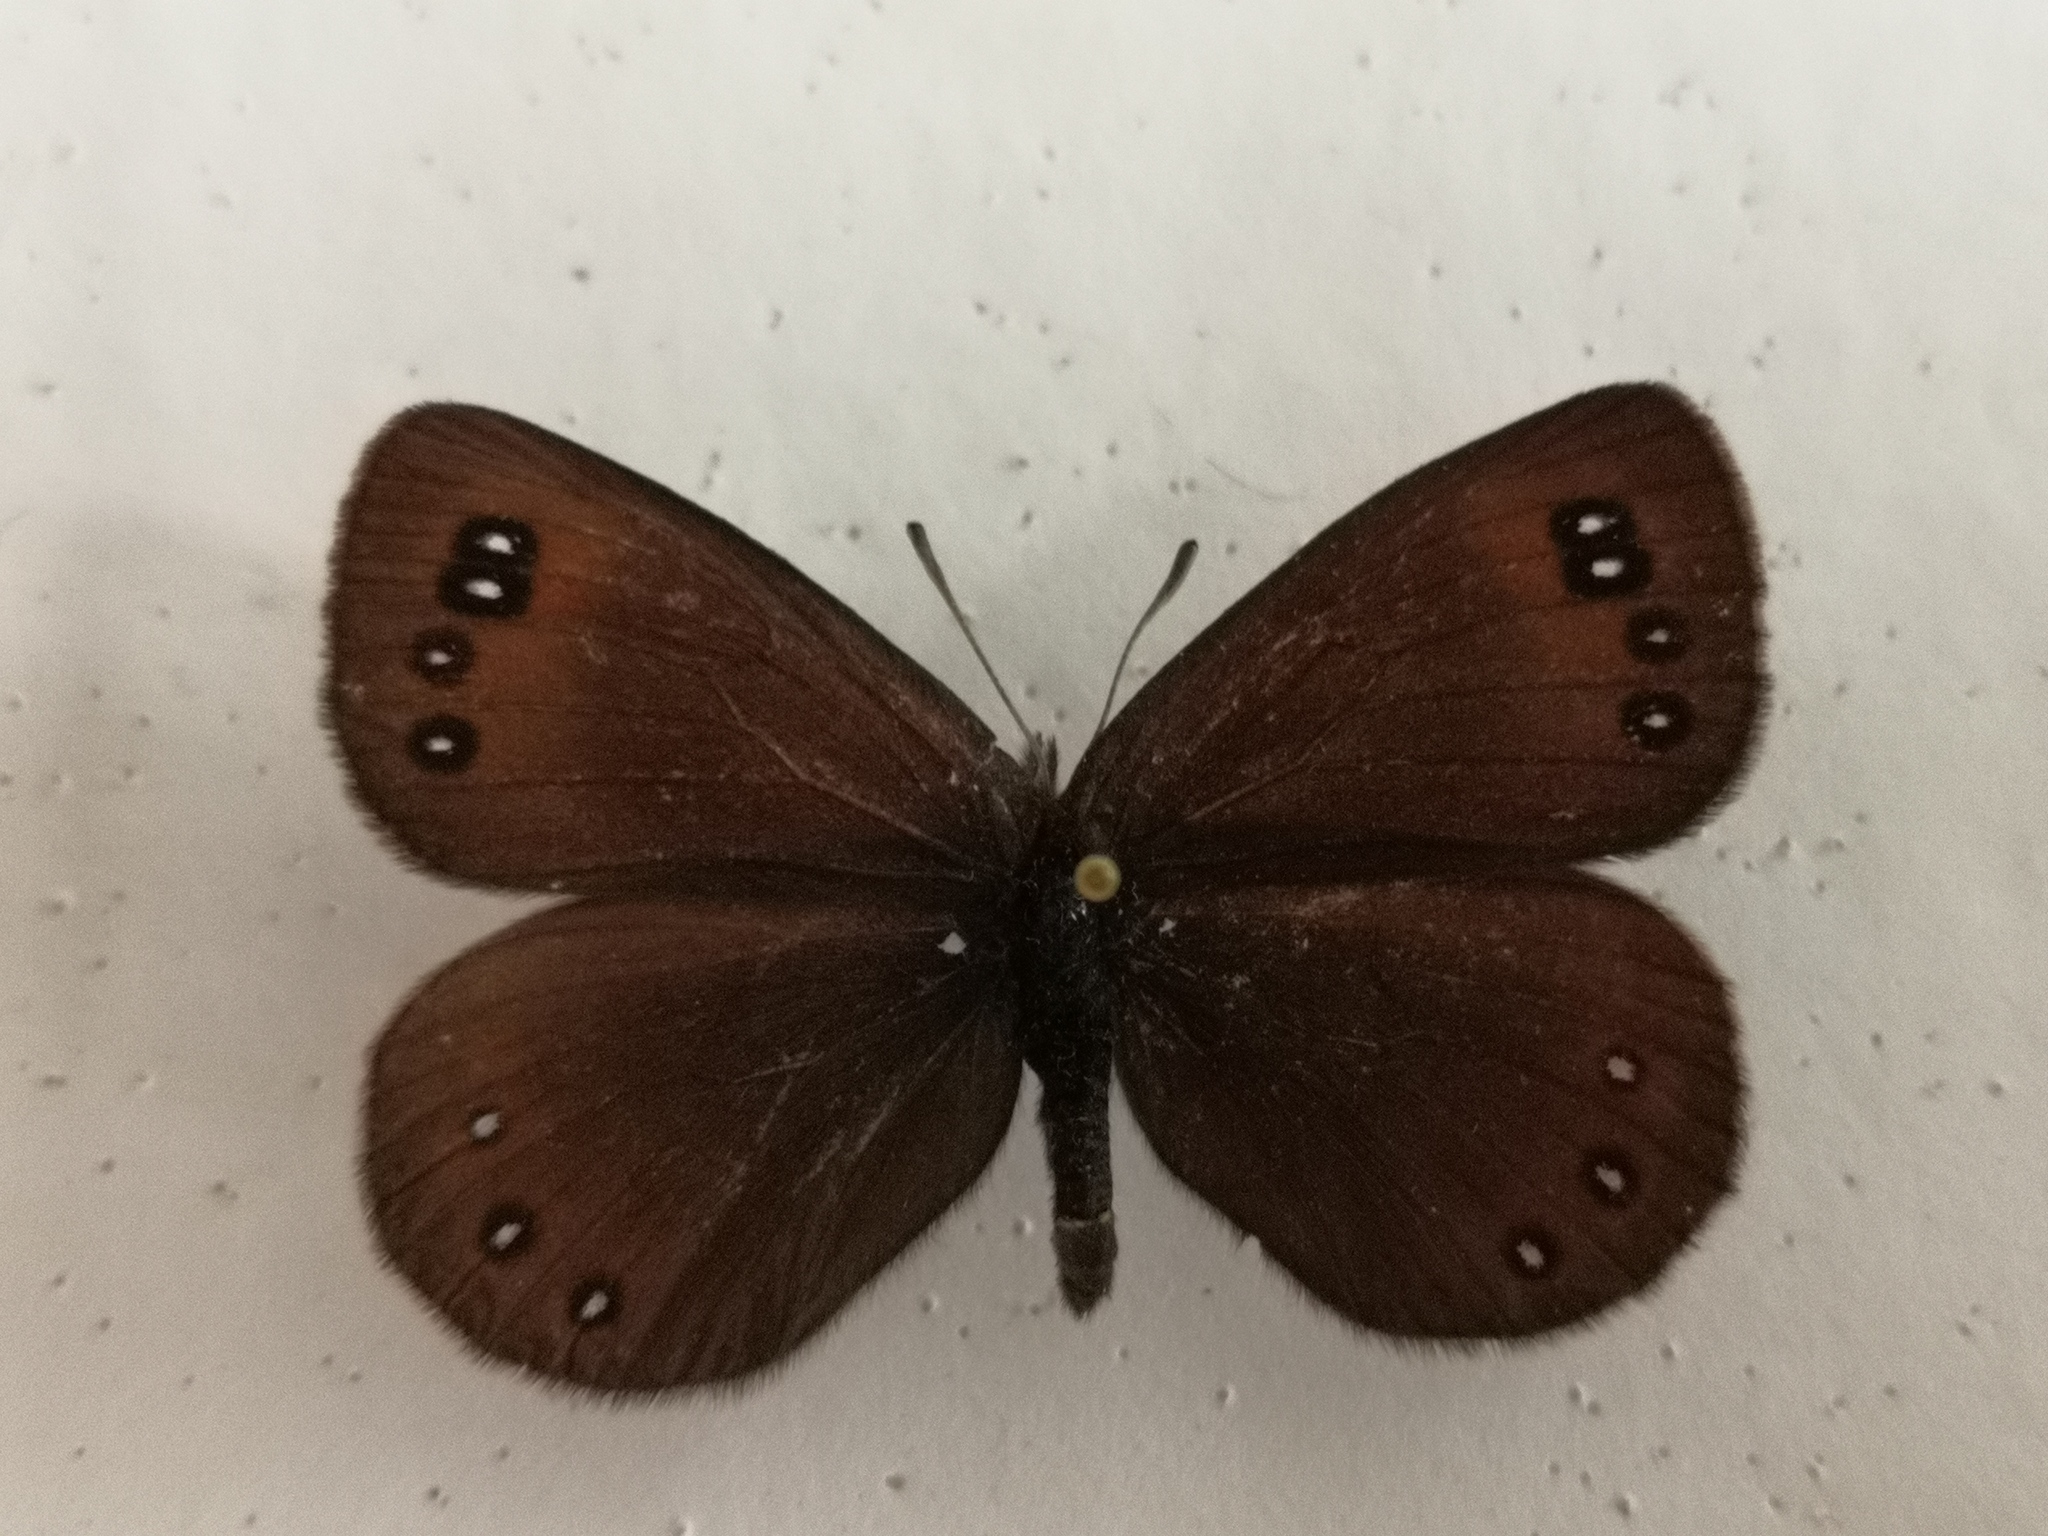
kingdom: Animalia
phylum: Arthropoda
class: Insecta
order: Lepidoptera
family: Nymphalidae
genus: Erebia
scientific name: Erebia pluto
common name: Sooty ringlet
